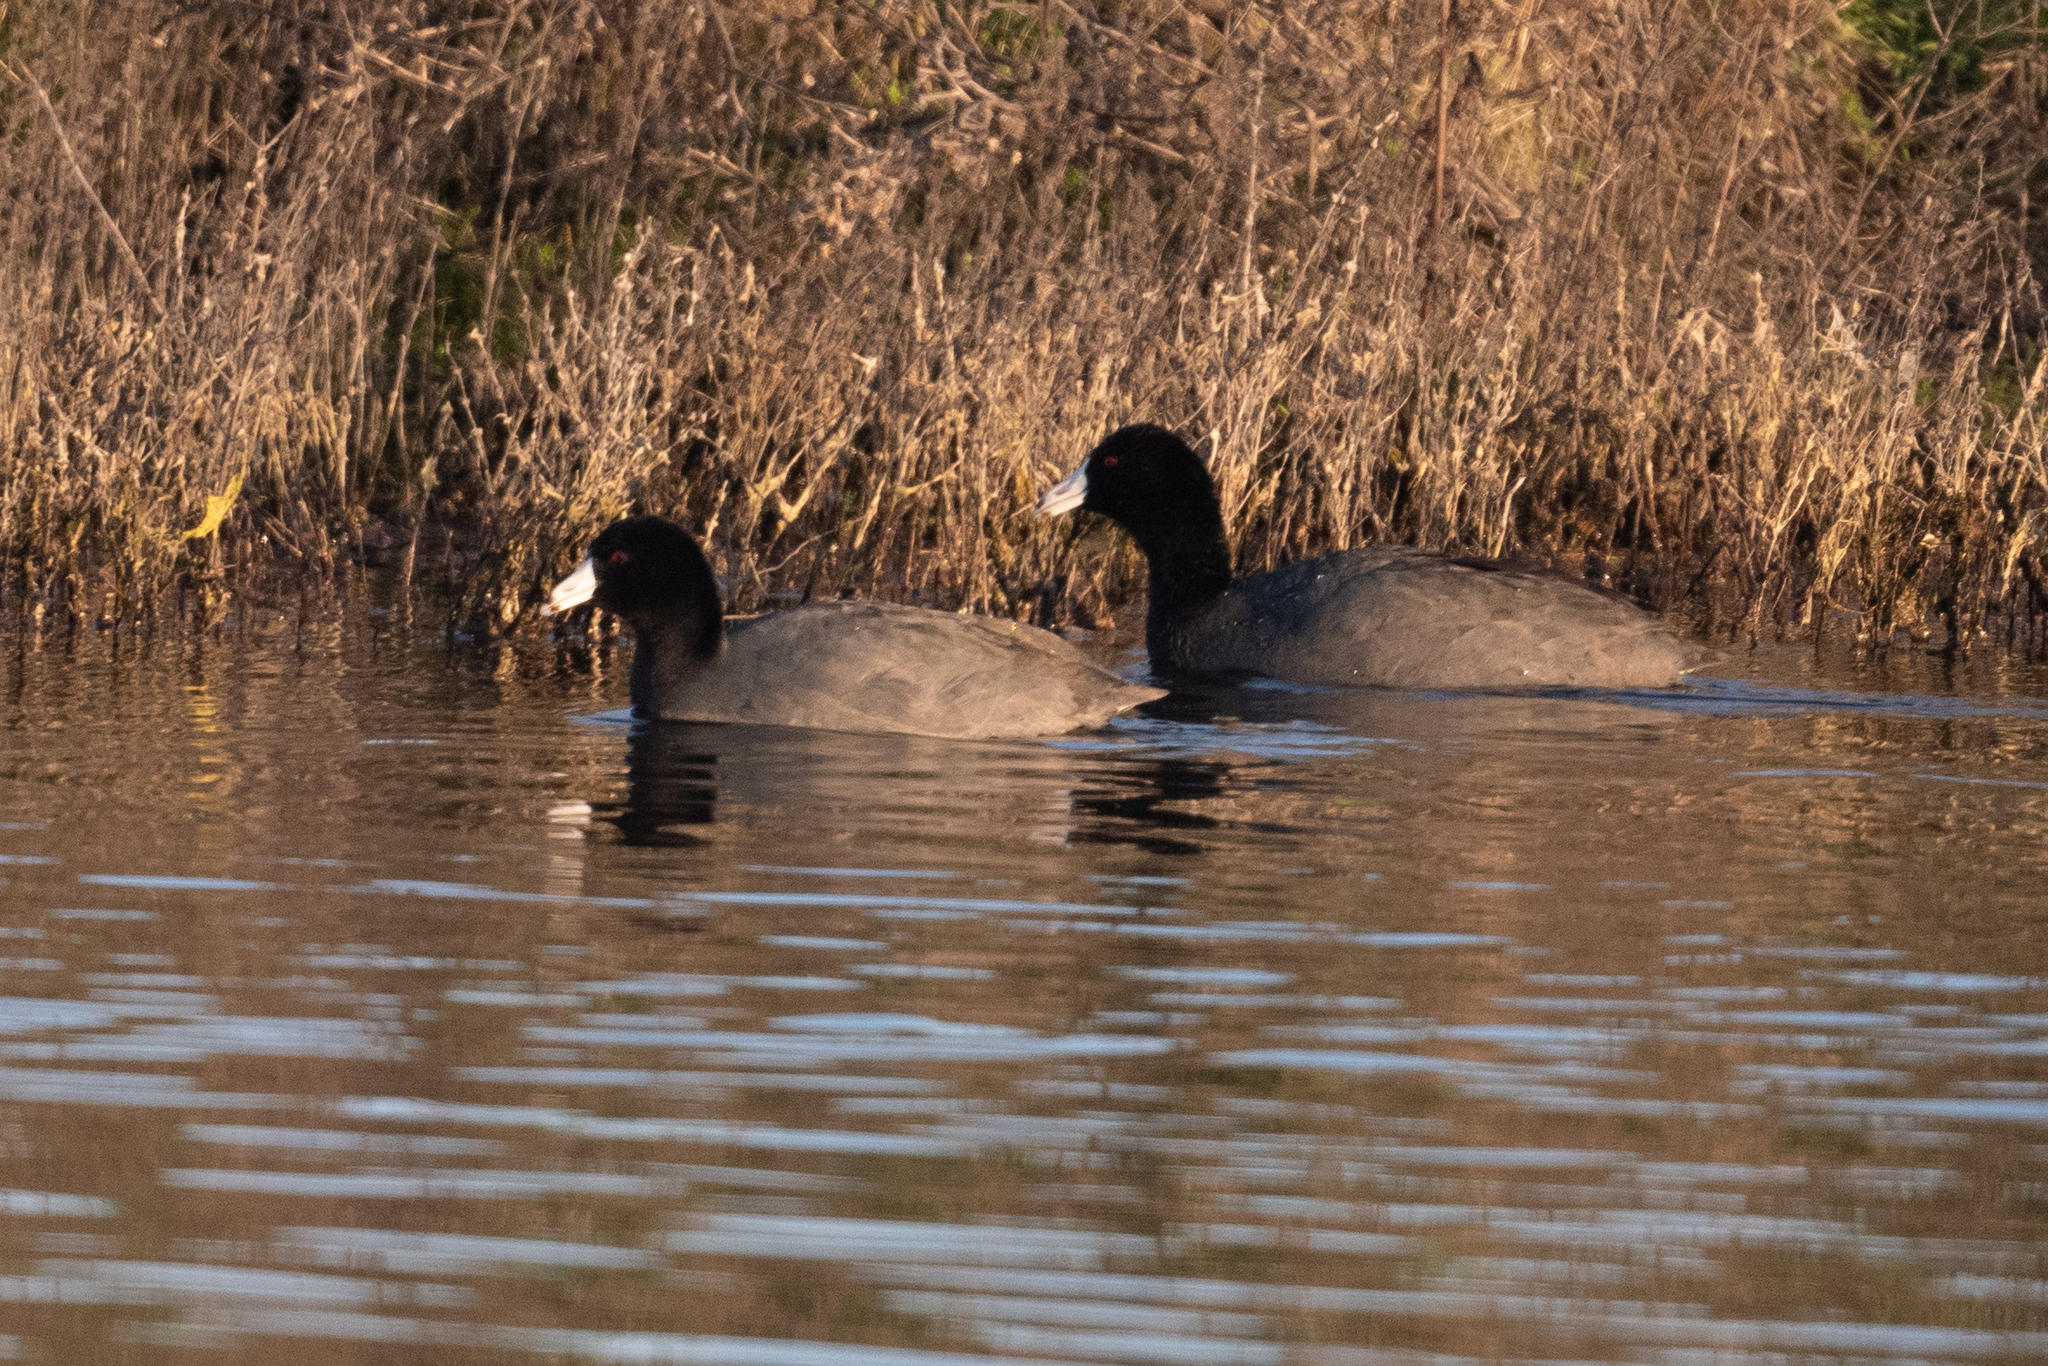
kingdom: Animalia
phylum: Chordata
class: Aves
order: Gruiformes
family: Rallidae
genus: Fulica
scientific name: Fulica americana
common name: American coot
